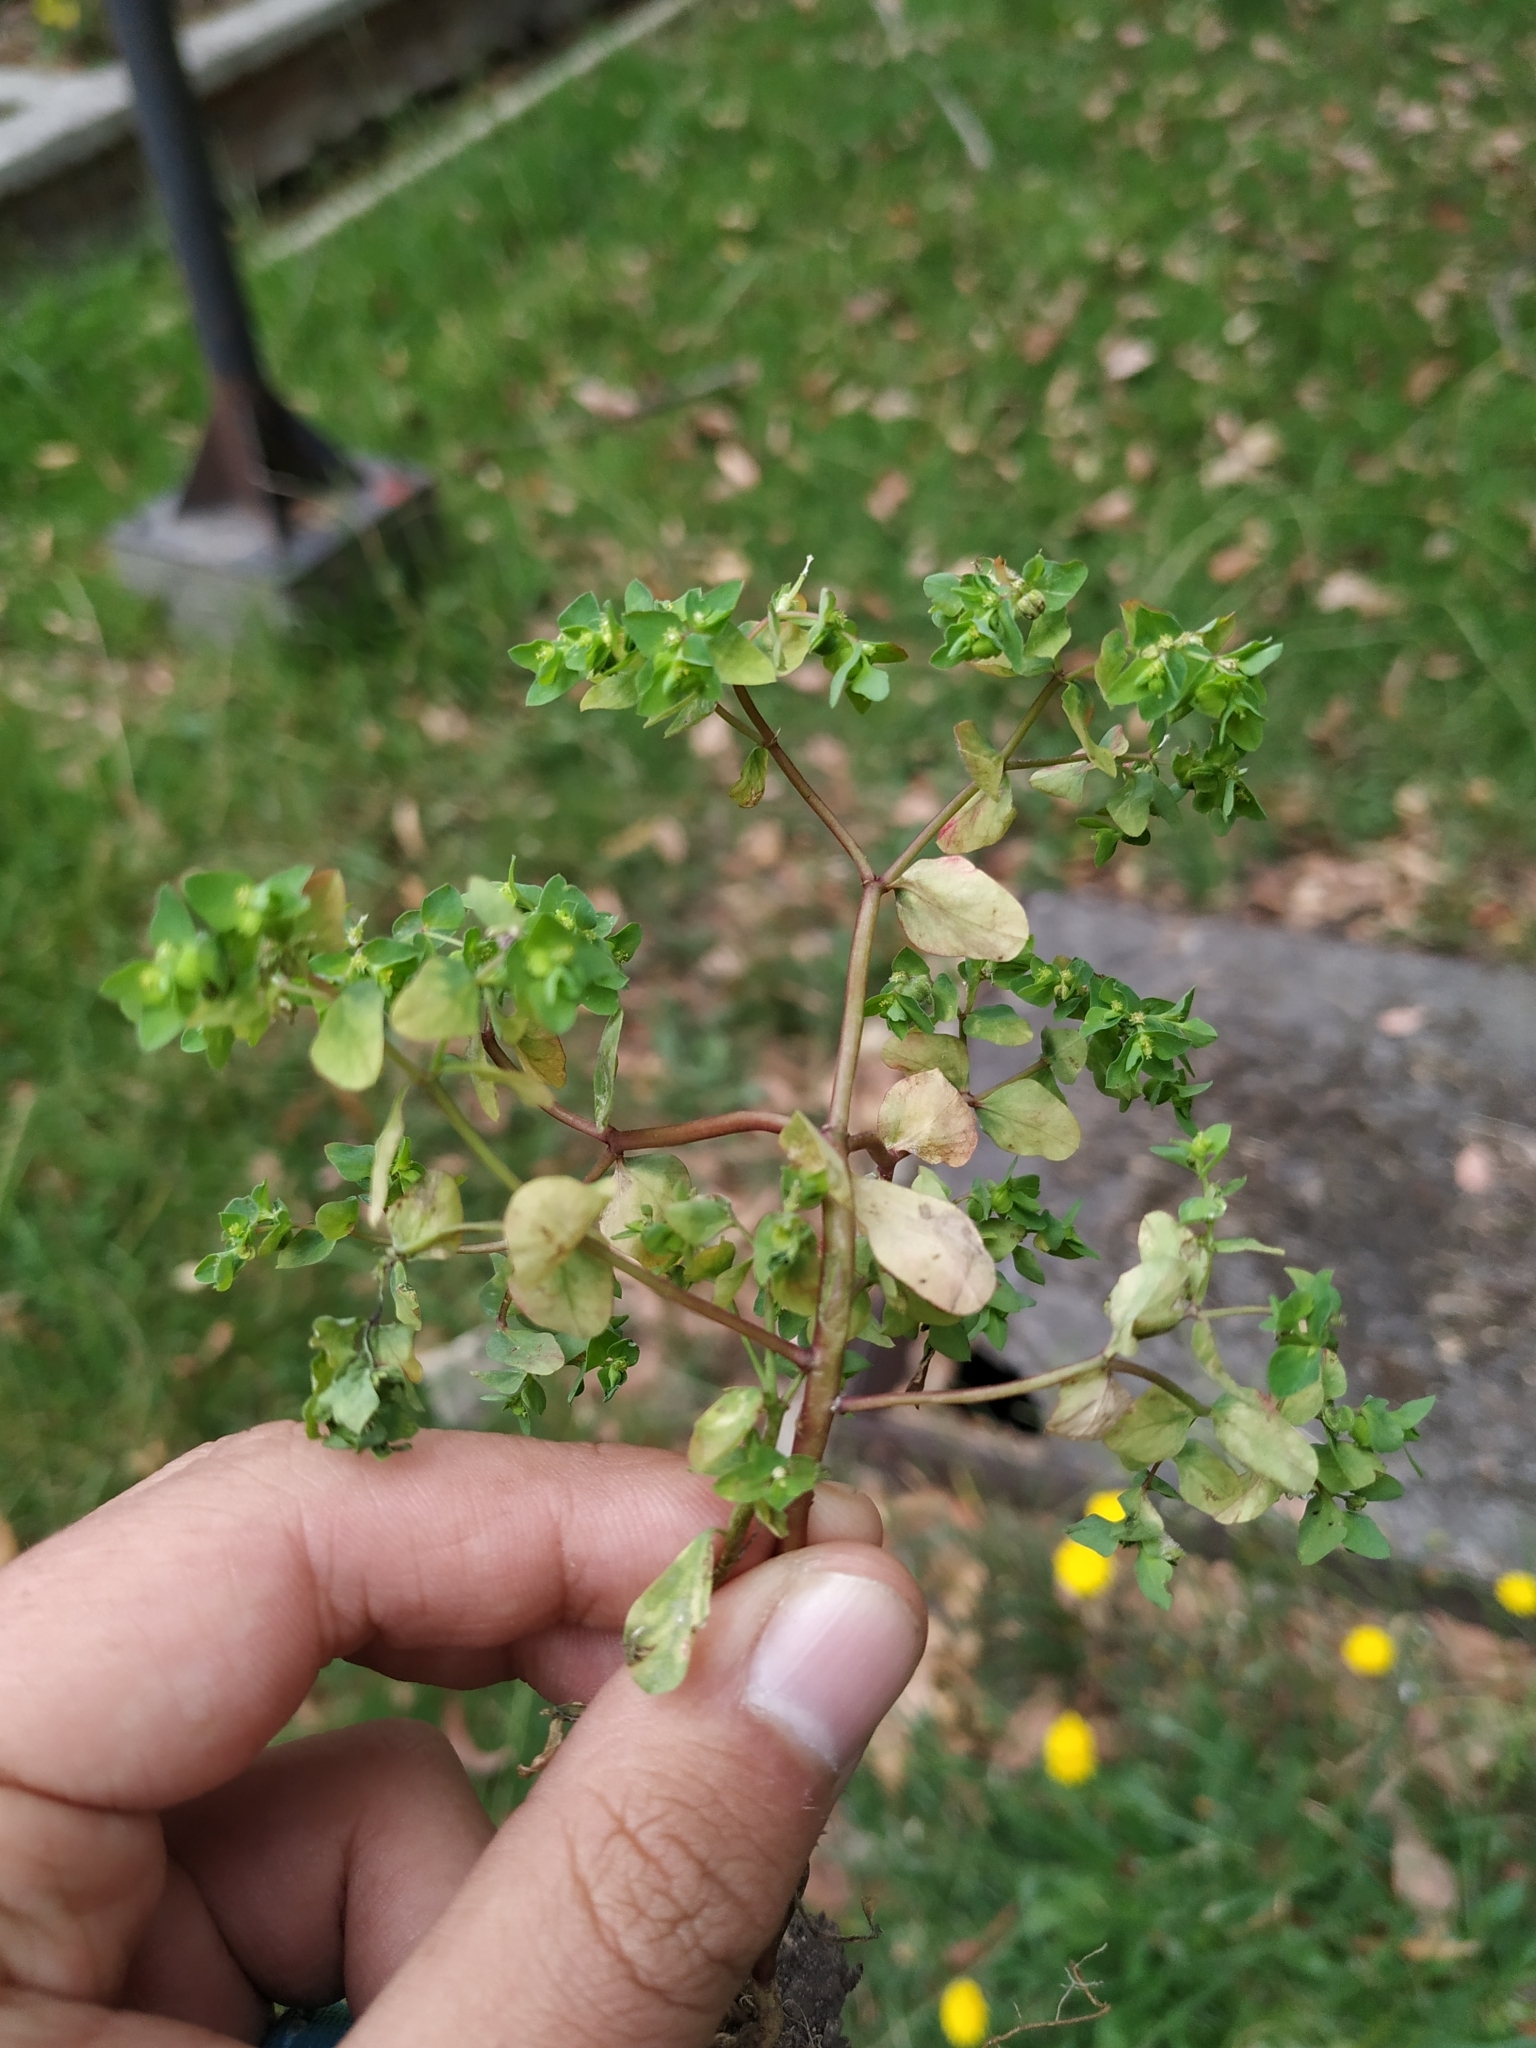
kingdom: Plantae
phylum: Tracheophyta
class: Magnoliopsida
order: Malpighiales
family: Euphorbiaceae
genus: Euphorbia
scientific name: Euphorbia peplus
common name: Petty spurge
